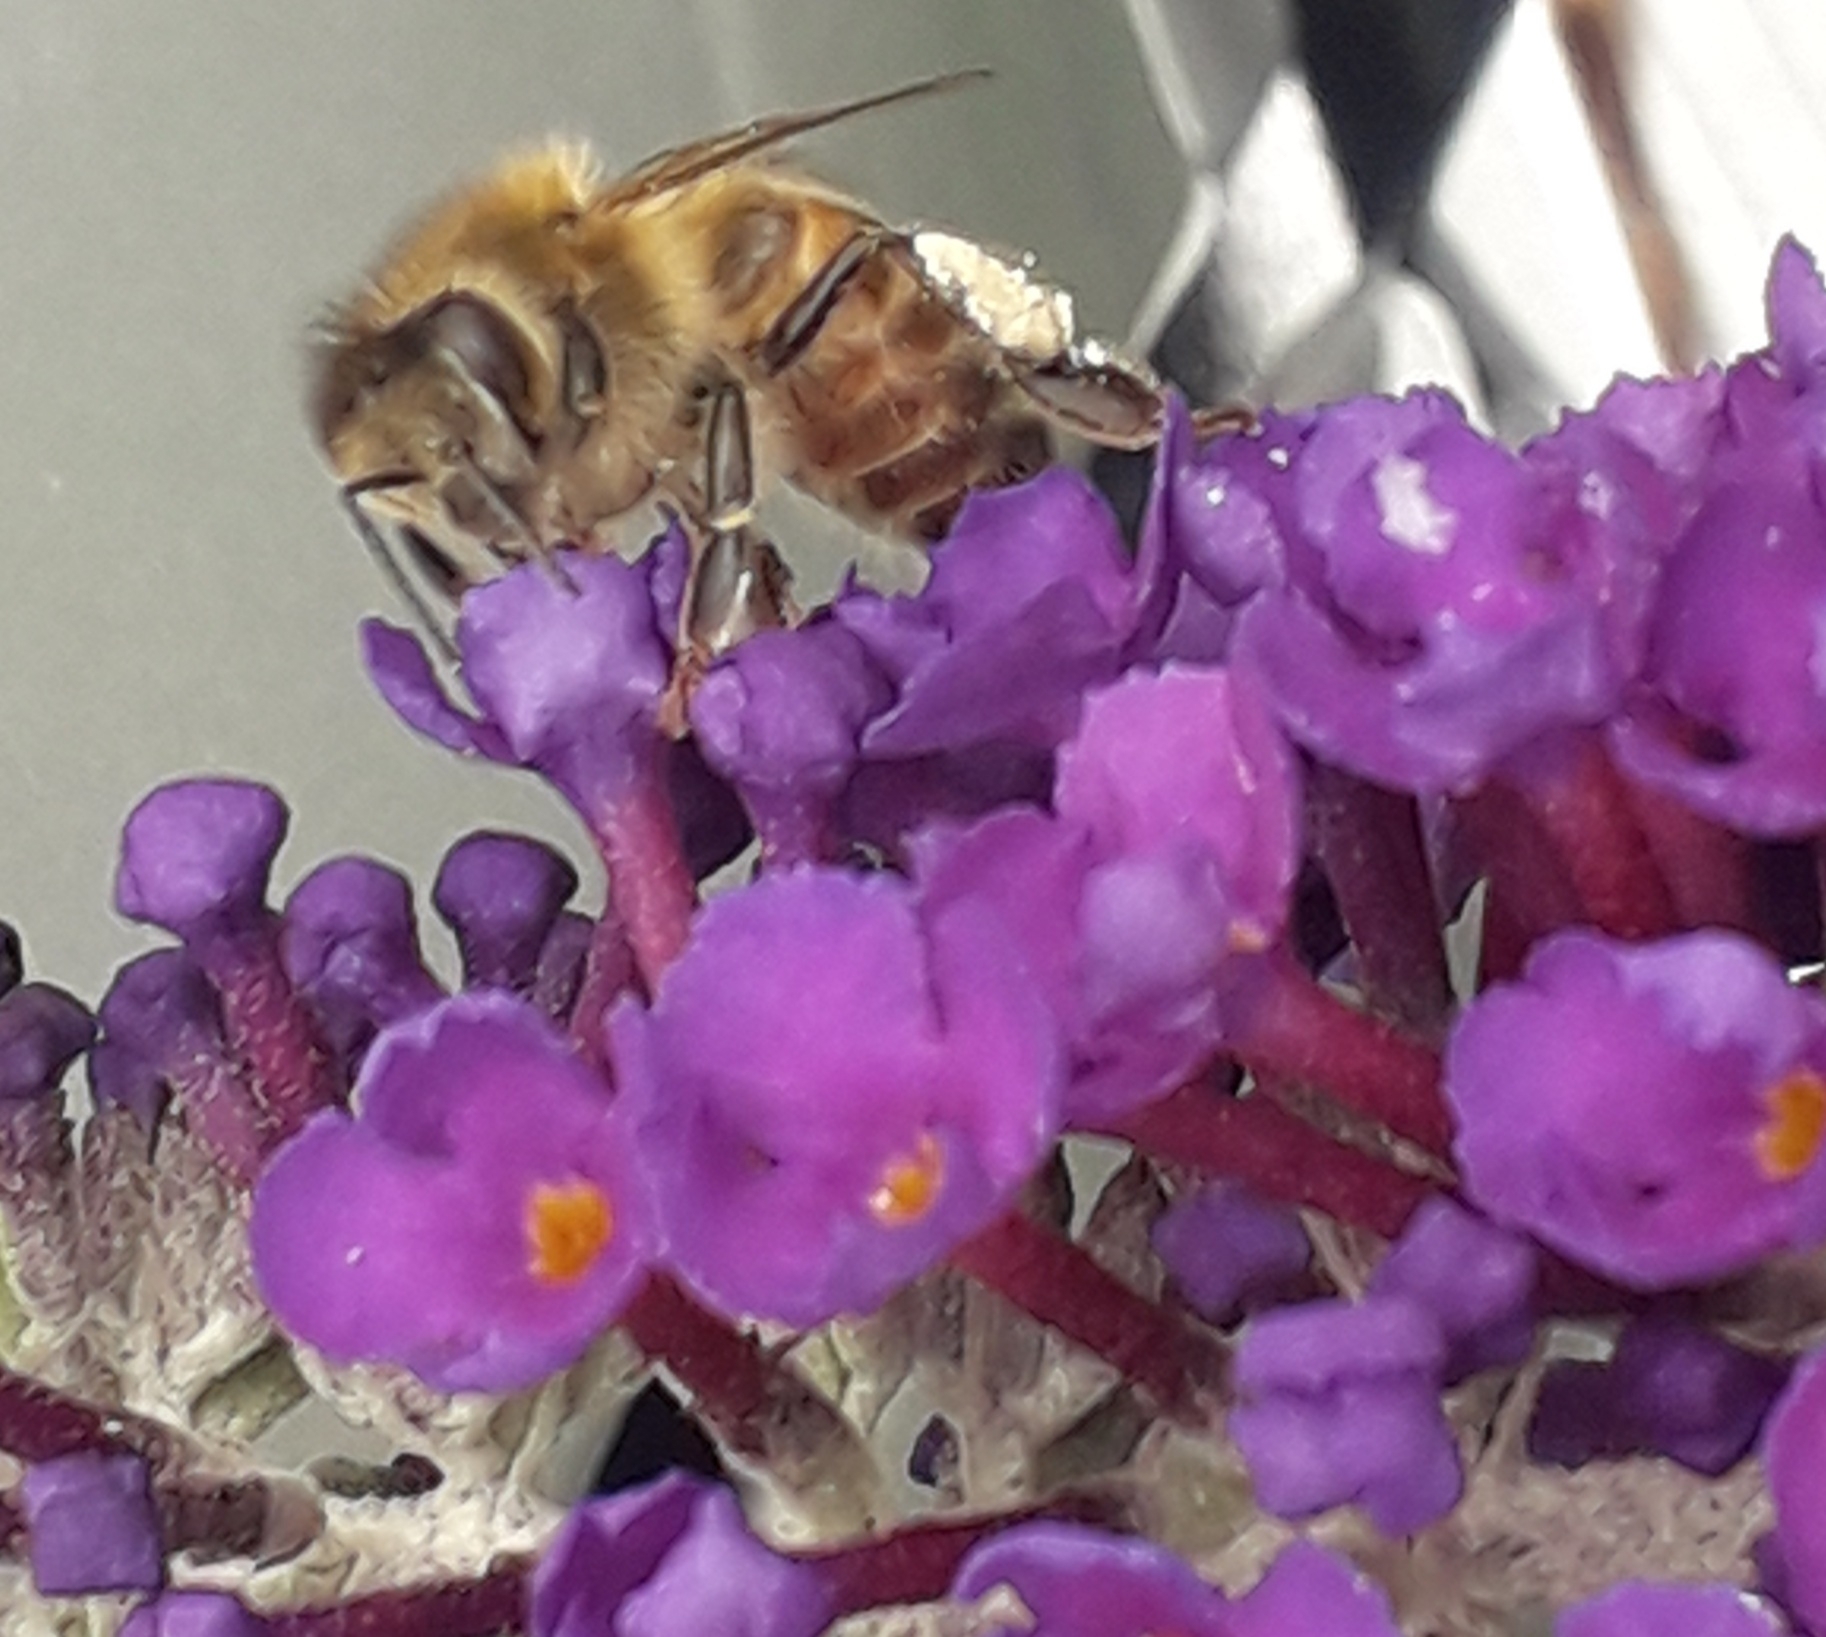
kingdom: Animalia
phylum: Arthropoda
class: Insecta
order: Hymenoptera
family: Apidae
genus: Apis
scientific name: Apis mellifera
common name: Honey bee
